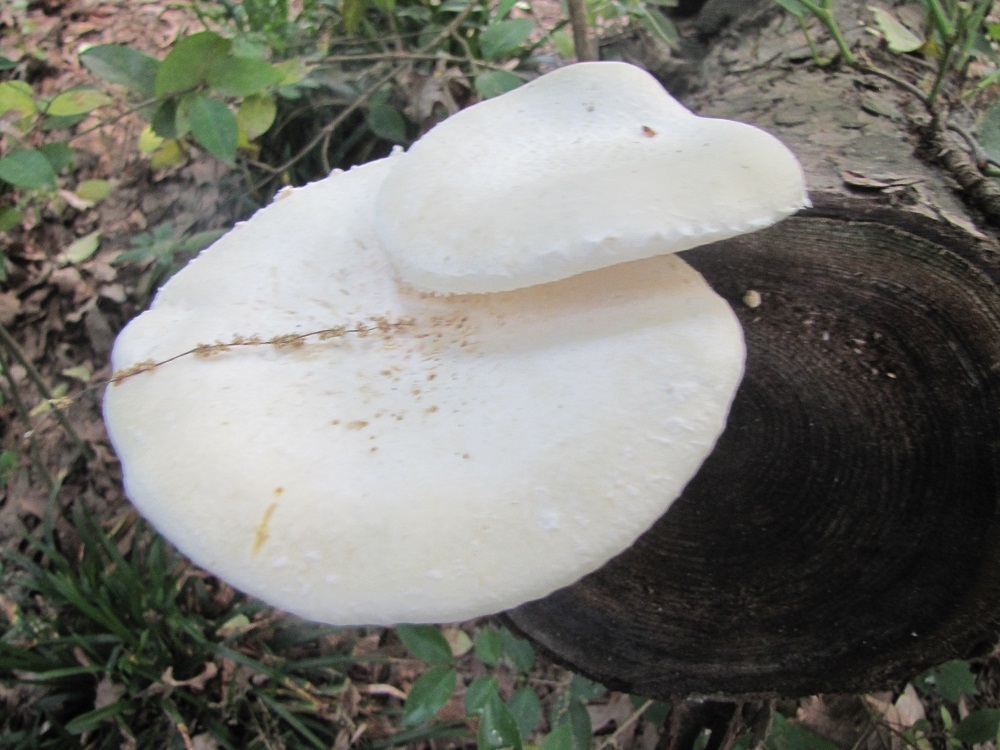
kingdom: Fungi
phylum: Basidiomycota
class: Agaricomycetes
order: Polyporales
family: Polyporaceae
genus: Lentinus
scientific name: Lentinus levis
